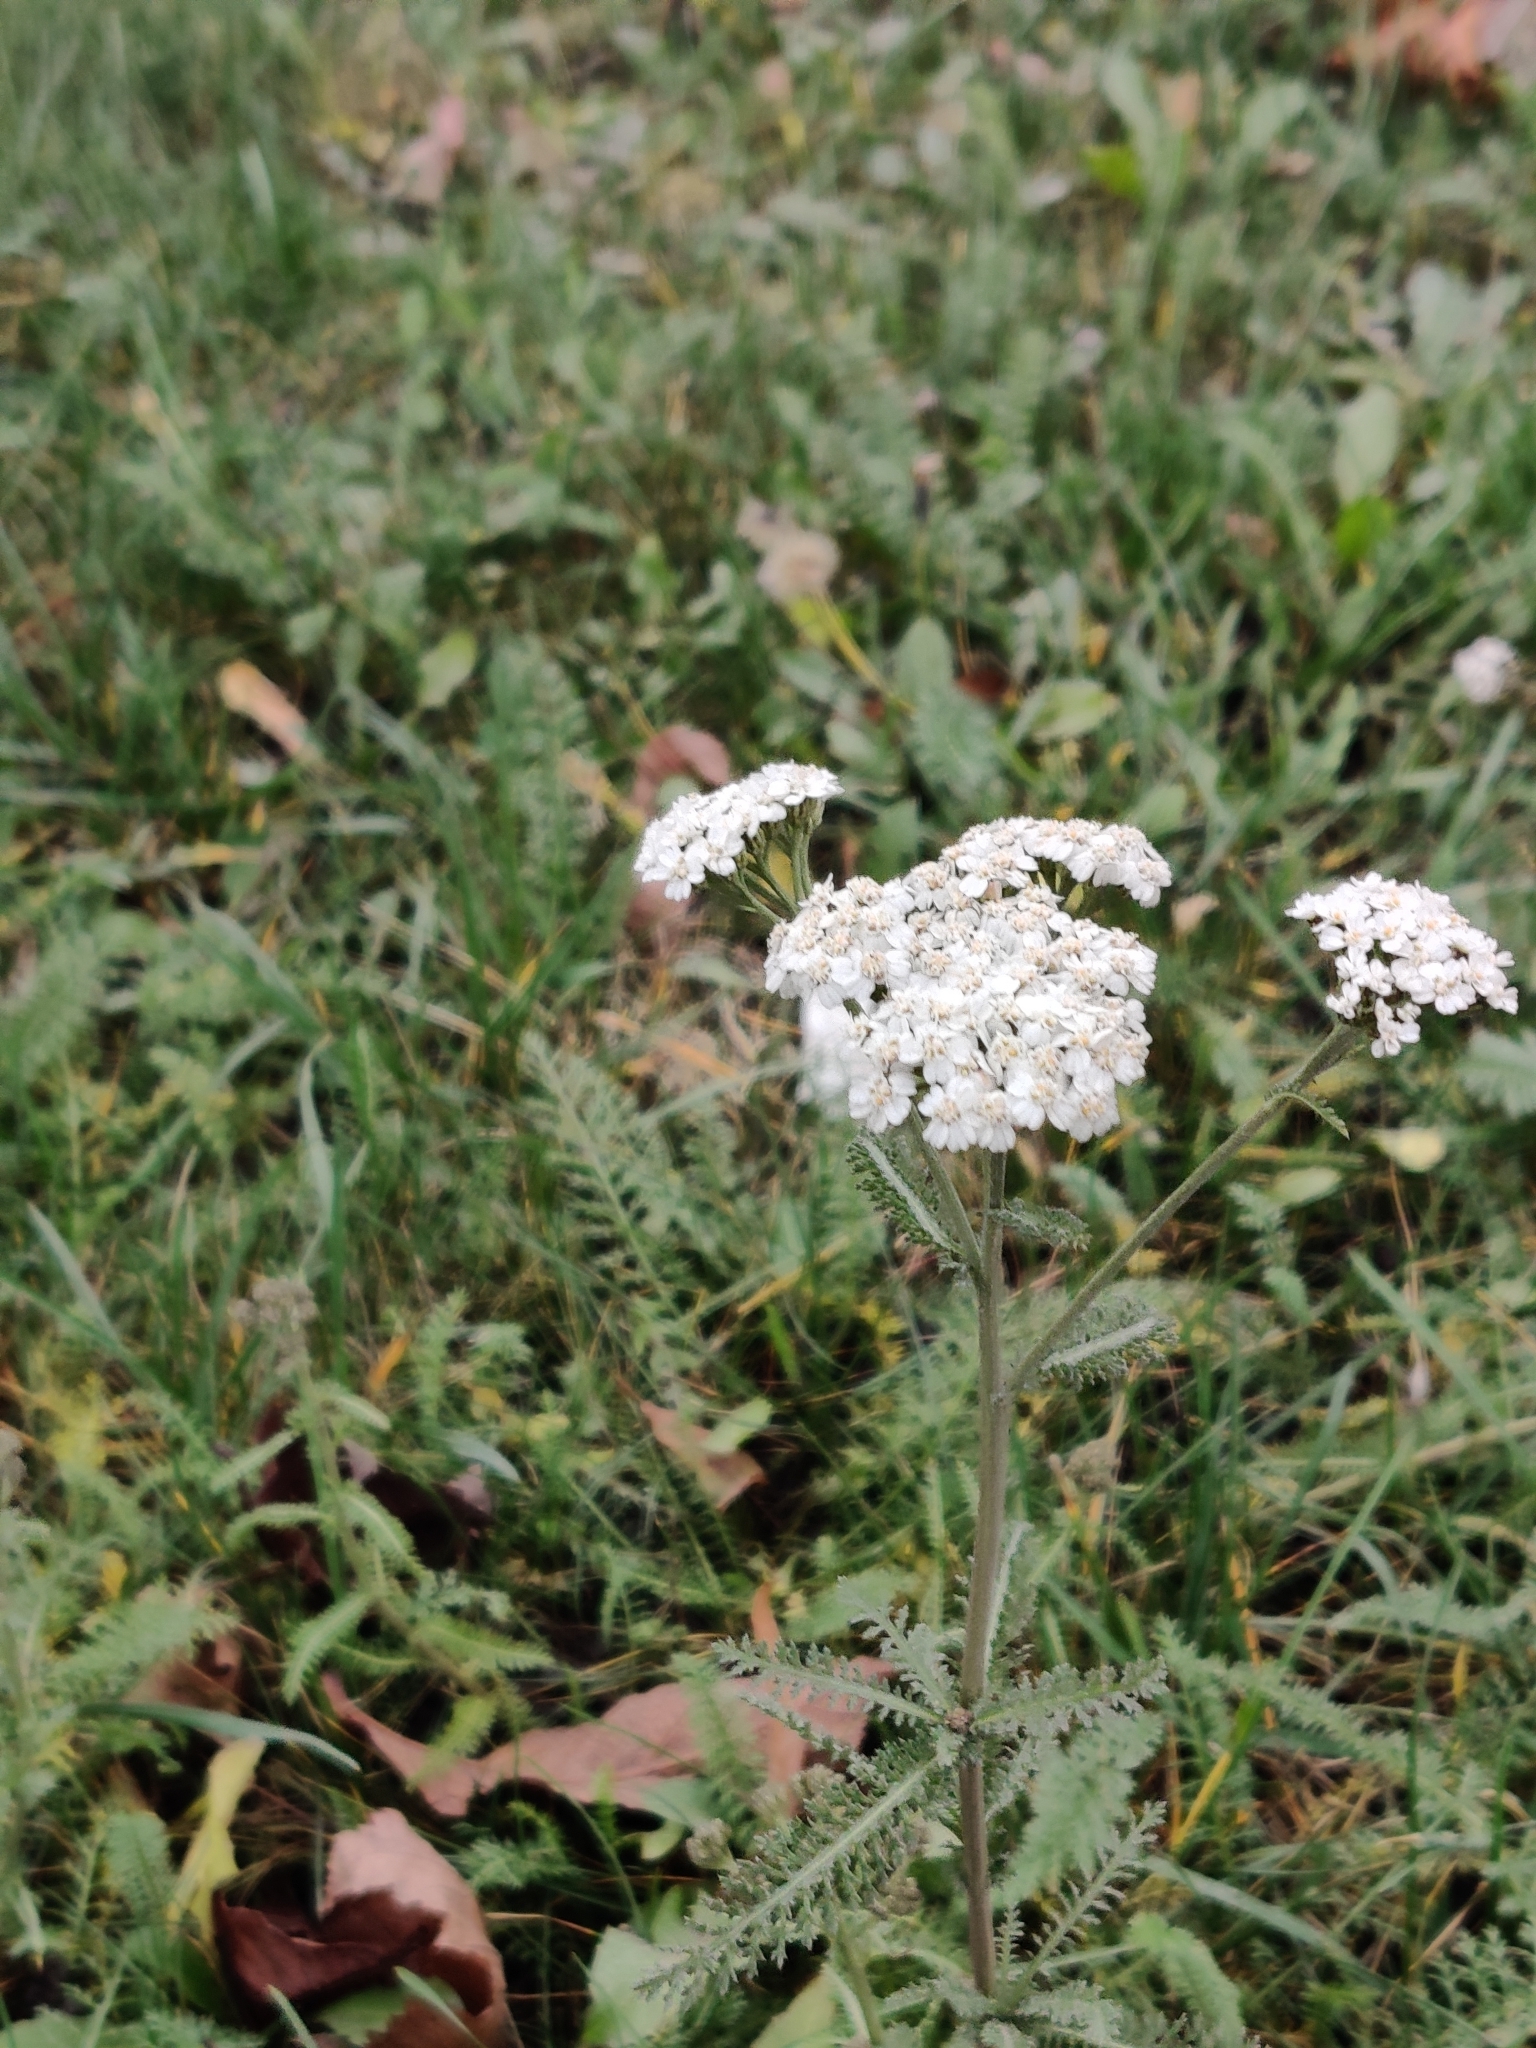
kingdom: Plantae
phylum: Tracheophyta
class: Magnoliopsida
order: Asterales
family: Asteraceae
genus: Achillea
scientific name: Achillea millefolium
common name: Yarrow
